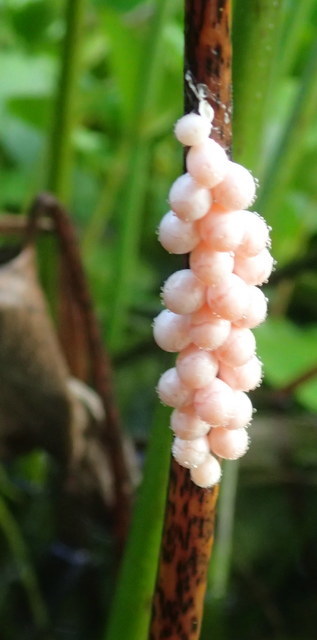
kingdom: Animalia
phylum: Mollusca
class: Gastropoda
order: Architaenioglossa
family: Ampullariidae
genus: Pomacea
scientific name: Pomacea paludosa
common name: Florida applesnail
